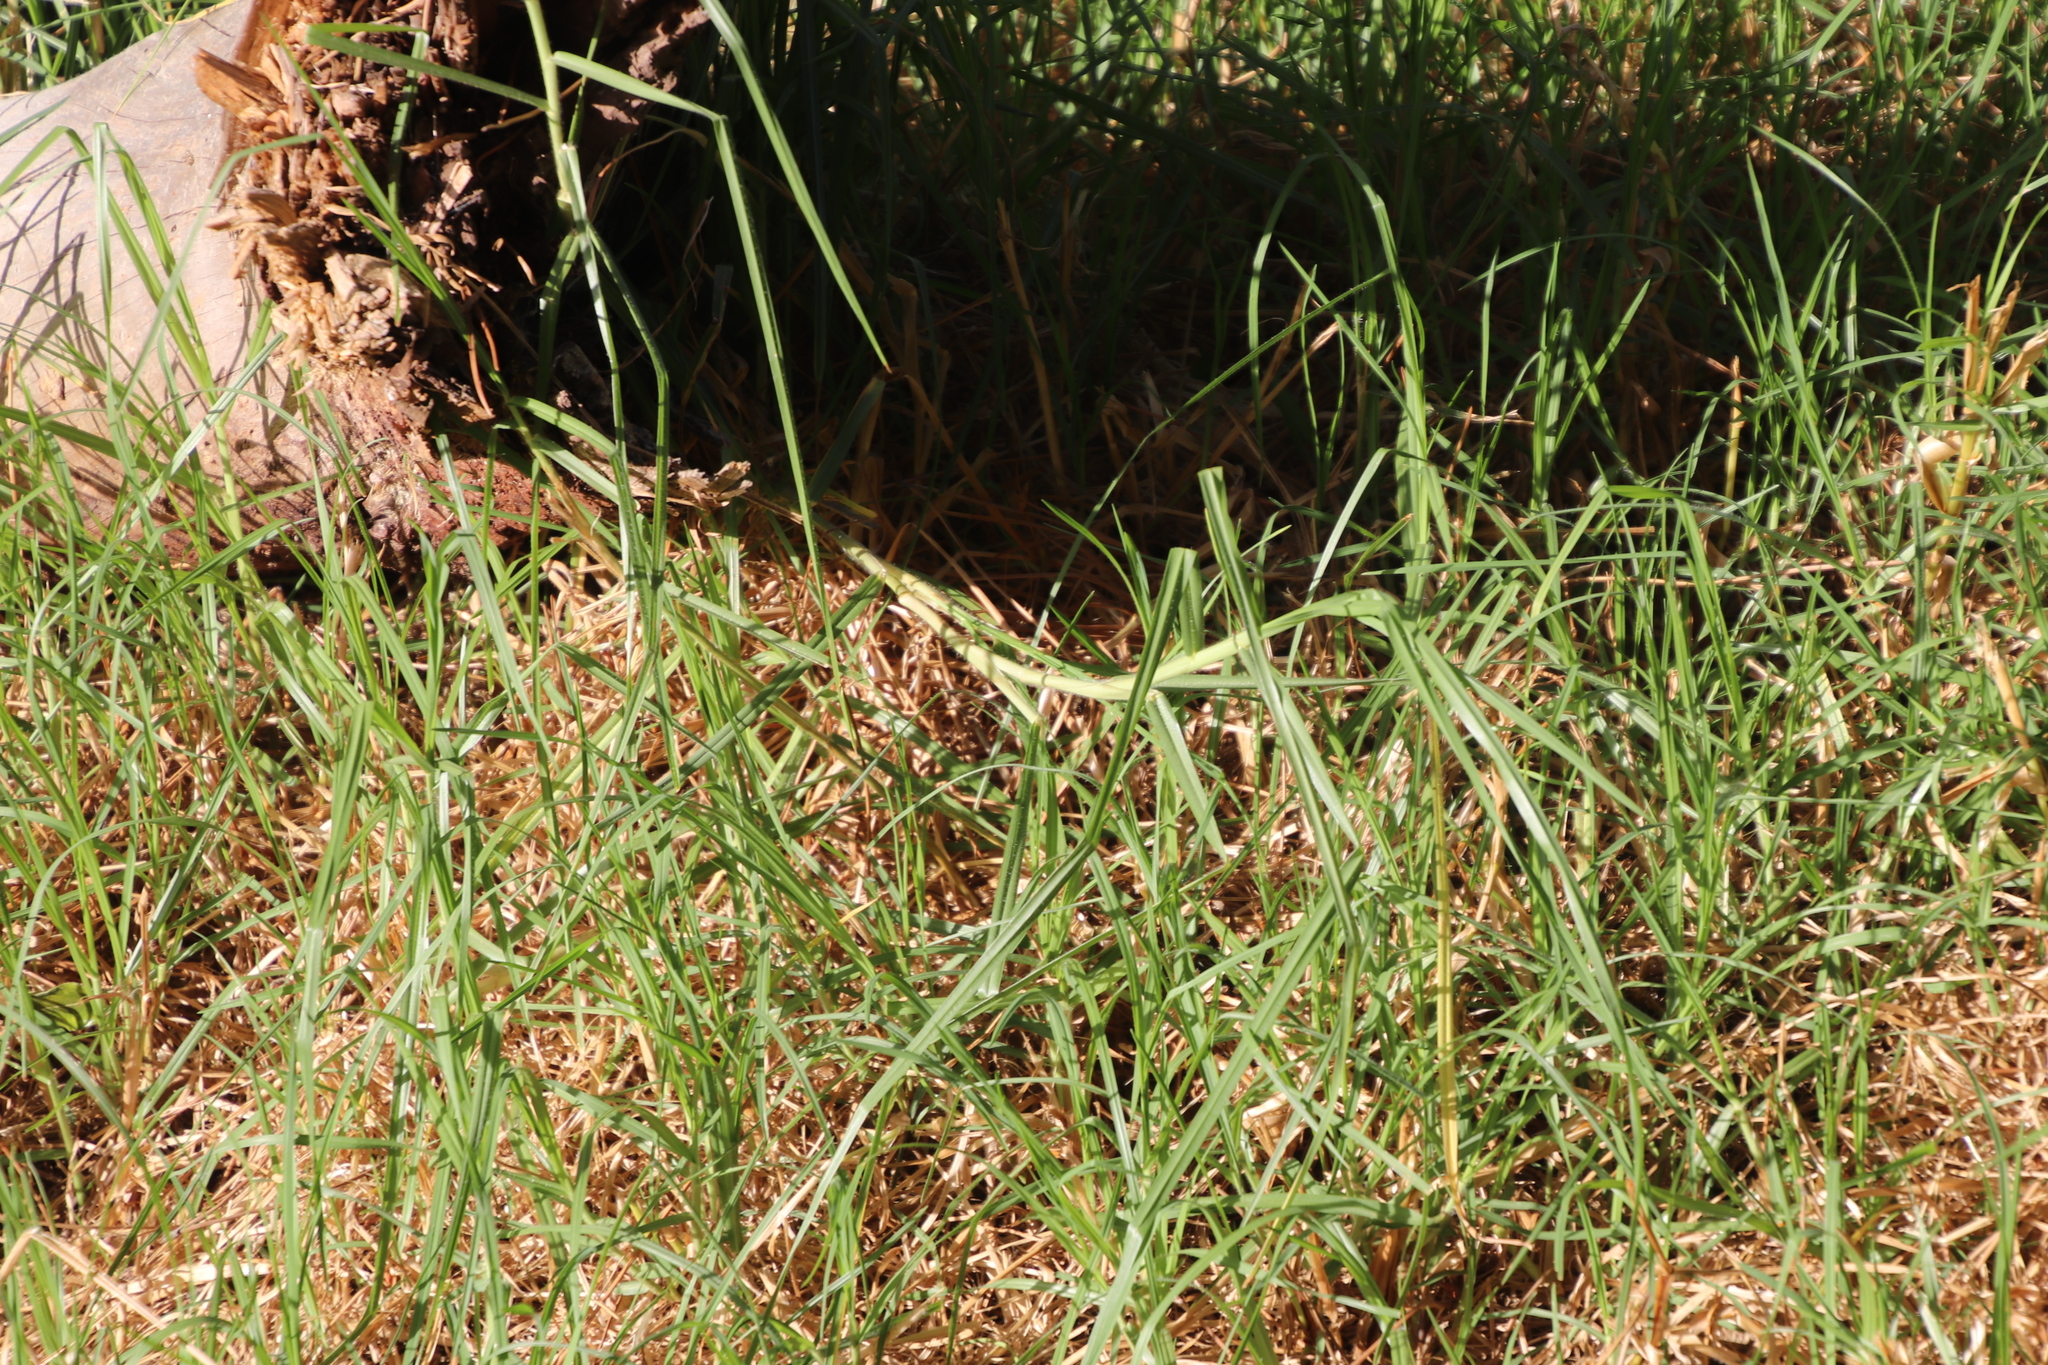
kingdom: Plantae
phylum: Tracheophyta
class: Liliopsida
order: Poales
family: Poaceae
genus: Cenchrus
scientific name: Cenchrus clandestinus
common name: Kikuyugrass
